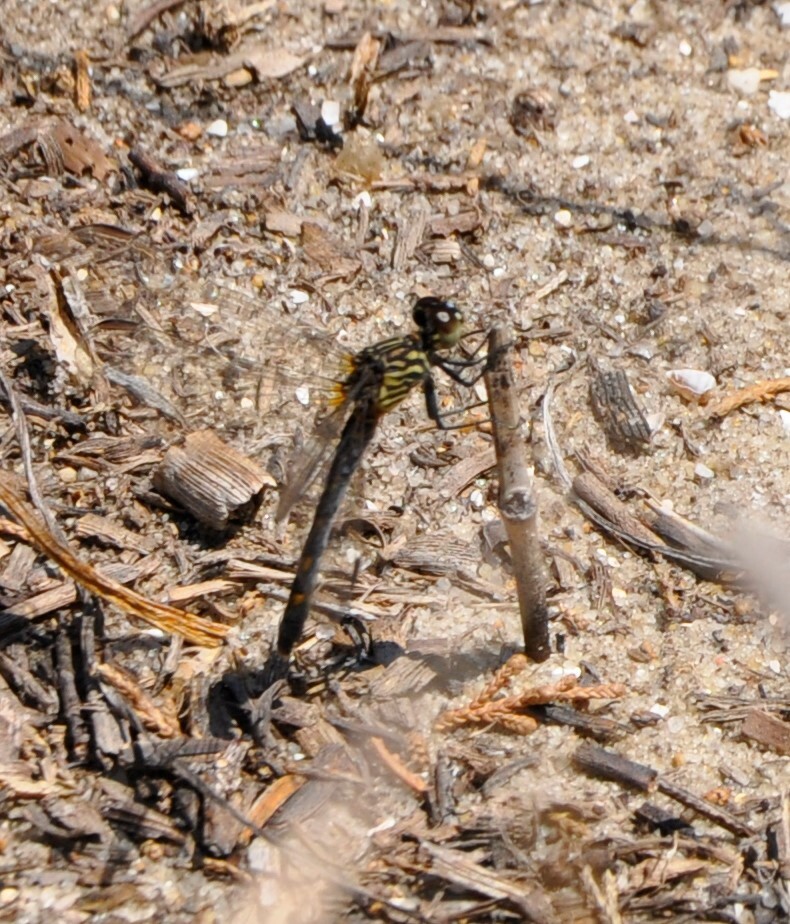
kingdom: Animalia
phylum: Arthropoda
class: Insecta
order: Odonata
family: Libellulidae
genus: Erythrodiplax
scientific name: Erythrodiplax berenice
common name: Seaside dragonlet
